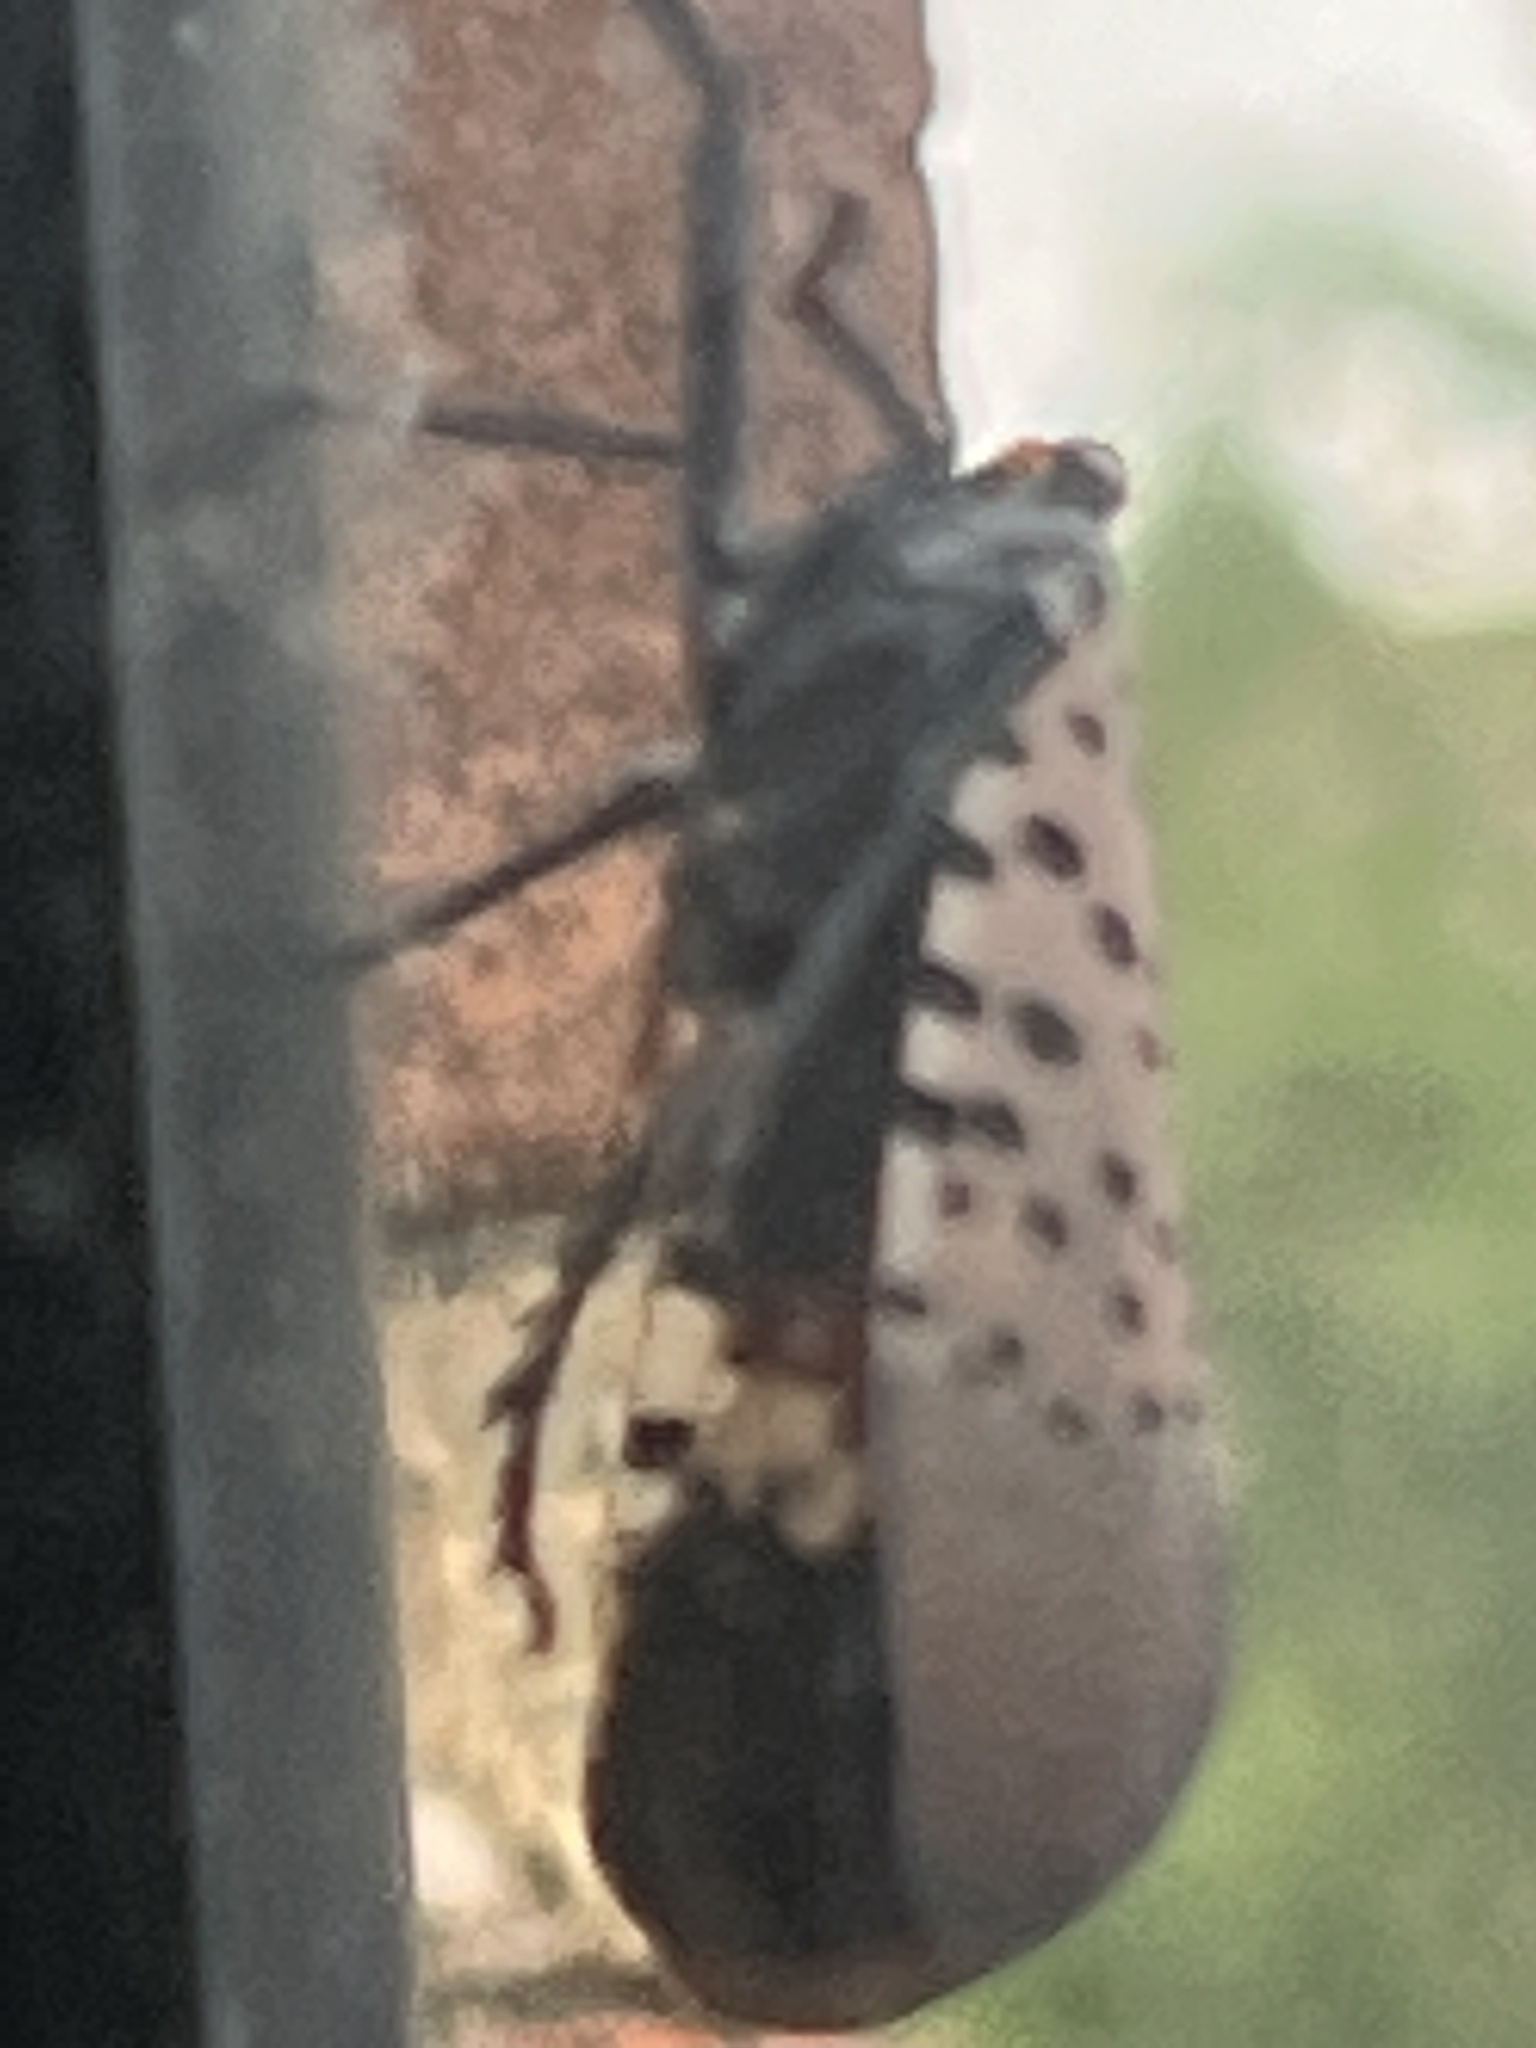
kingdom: Animalia
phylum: Arthropoda
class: Insecta
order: Hemiptera
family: Fulgoridae
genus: Lycorma
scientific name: Lycorma delicatula
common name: Spotted lanternfly
